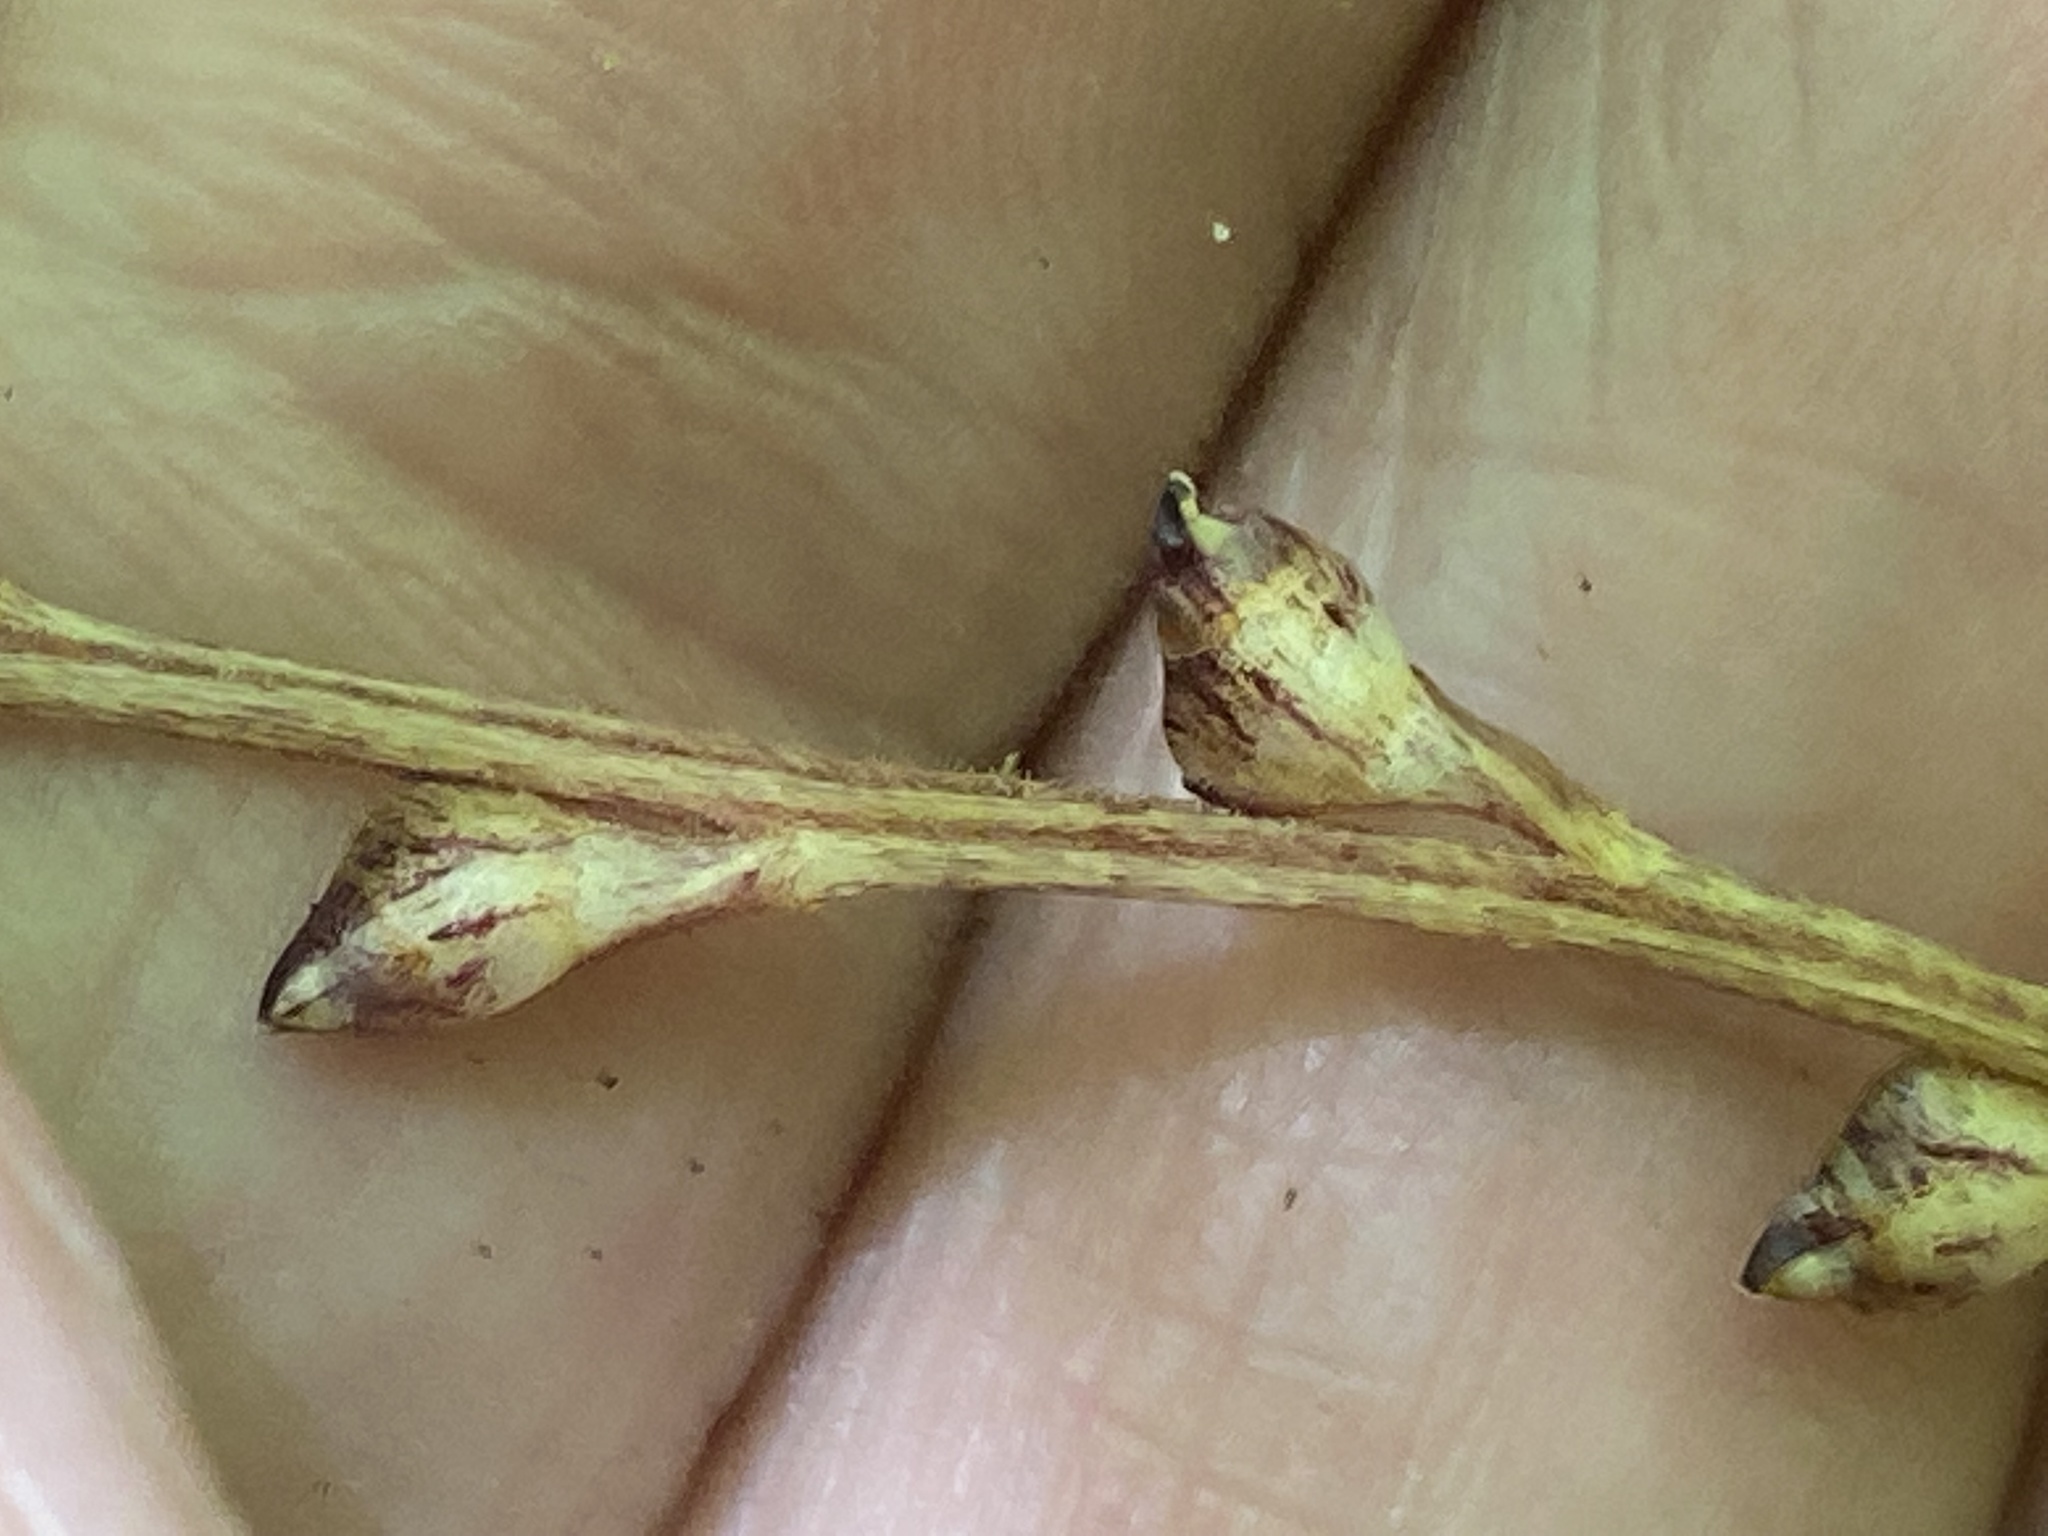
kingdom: Plantae
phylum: Tracheophyta
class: Magnoliopsida
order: Lamiales
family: Orobanchaceae
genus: Epifagus
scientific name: Epifagus virginiana
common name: Beechdrops
